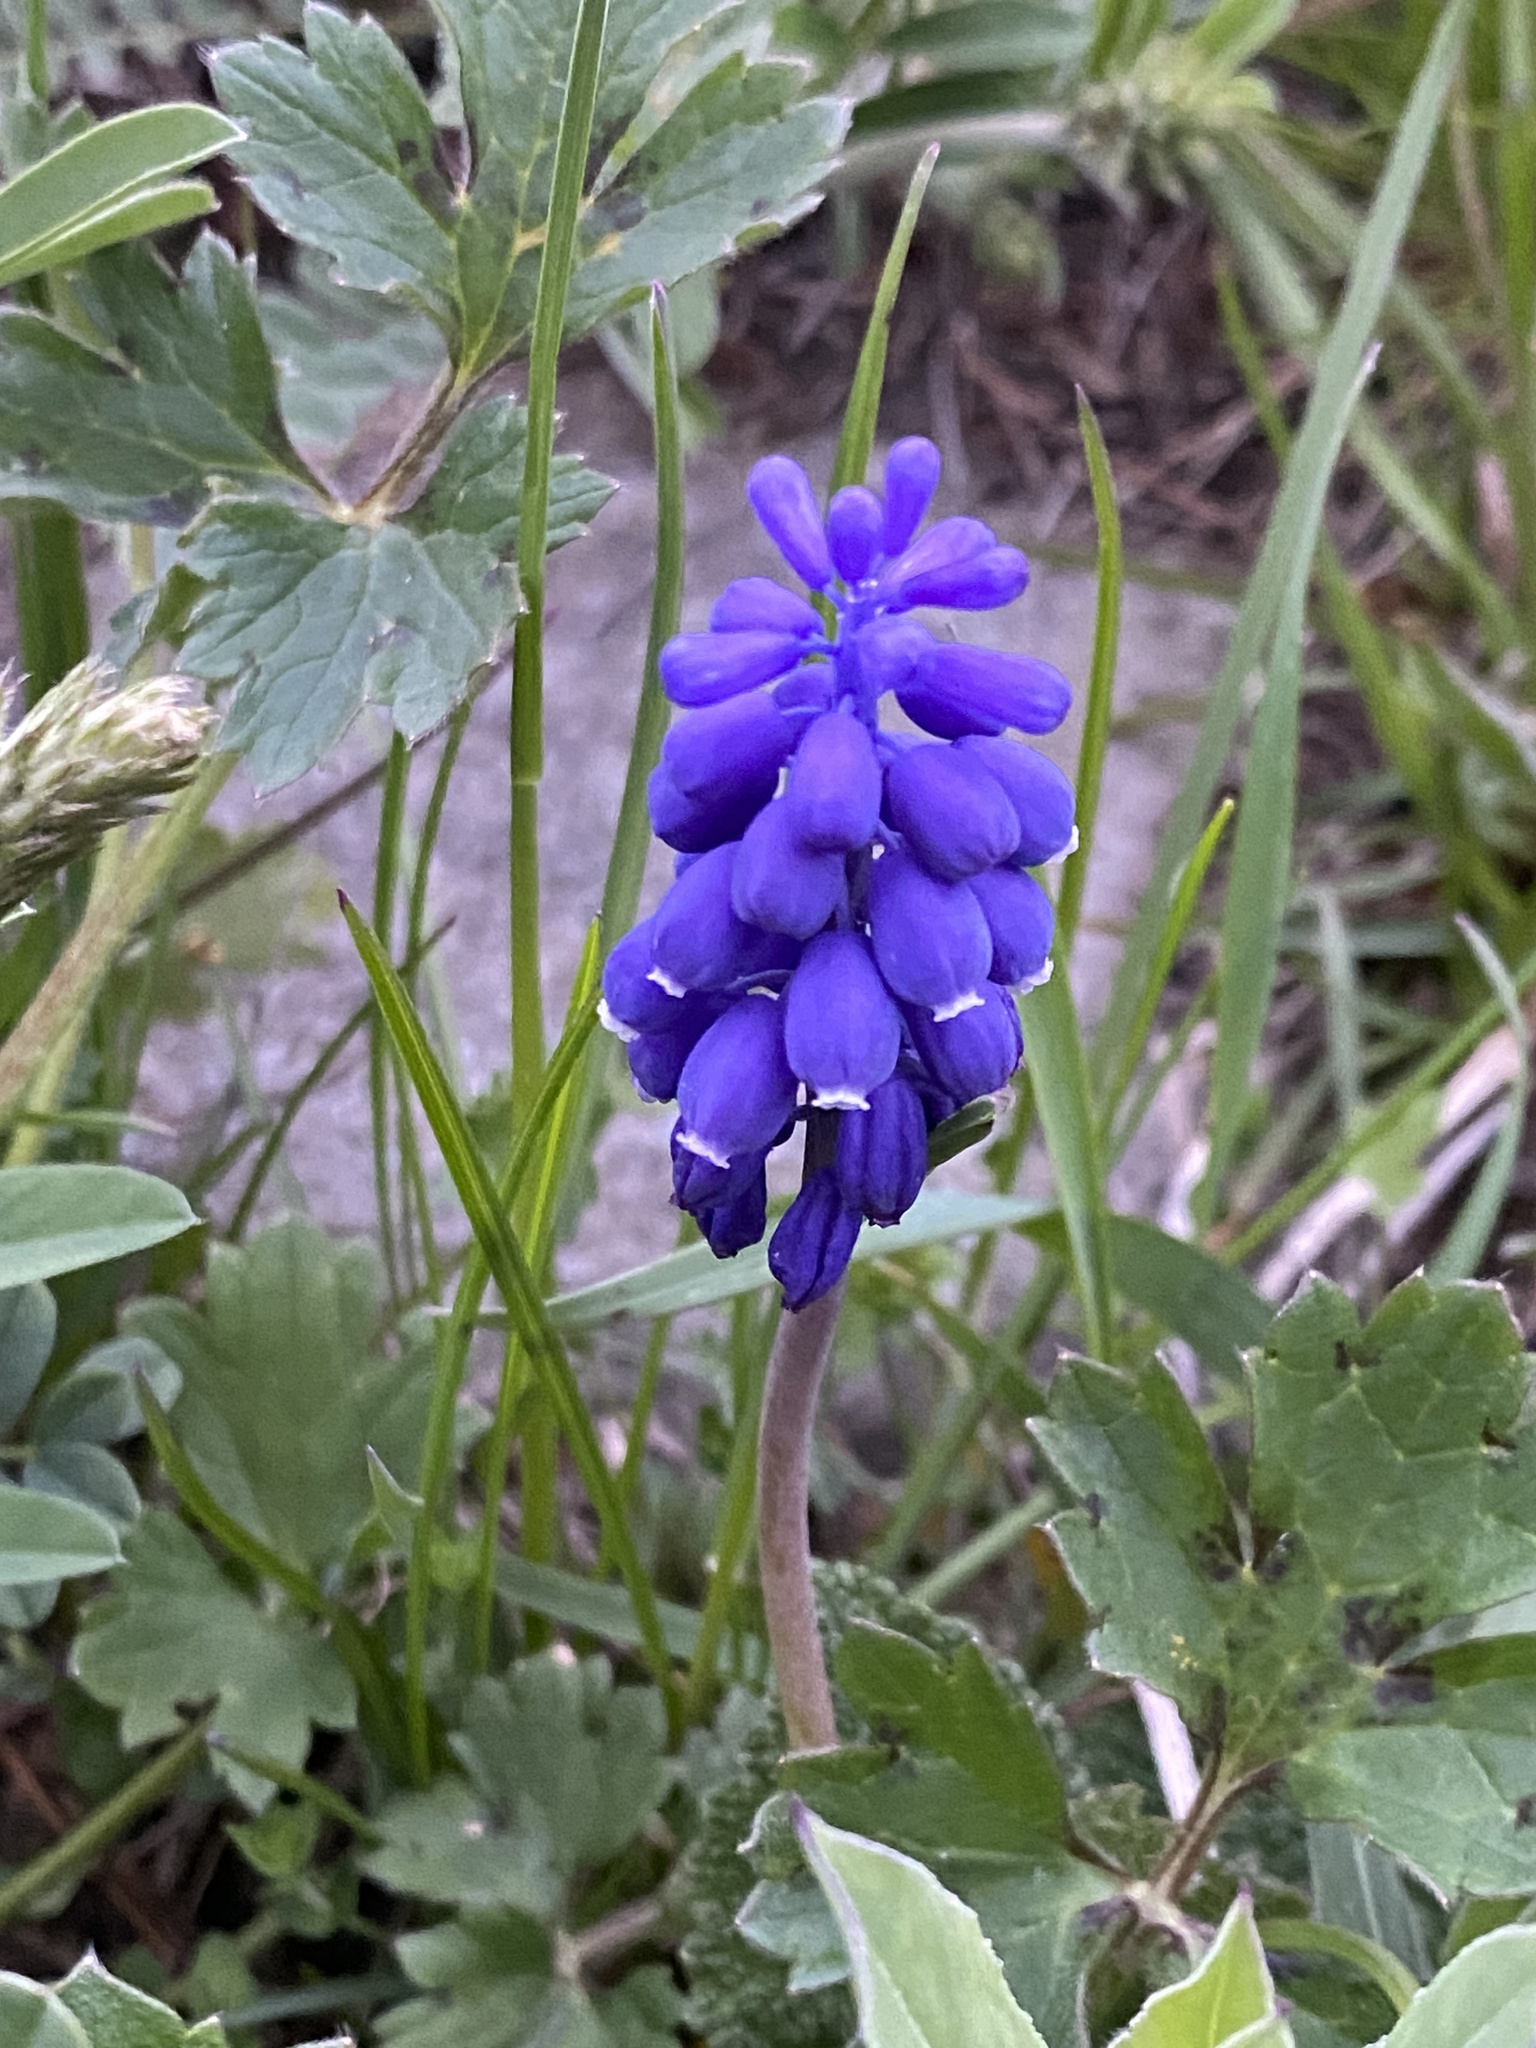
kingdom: Plantae
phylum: Tracheophyta
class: Liliopsida
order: Asparagales
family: Asparagaceae
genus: Muscari
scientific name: Muscari neglectum
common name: Grape-hyacinth
